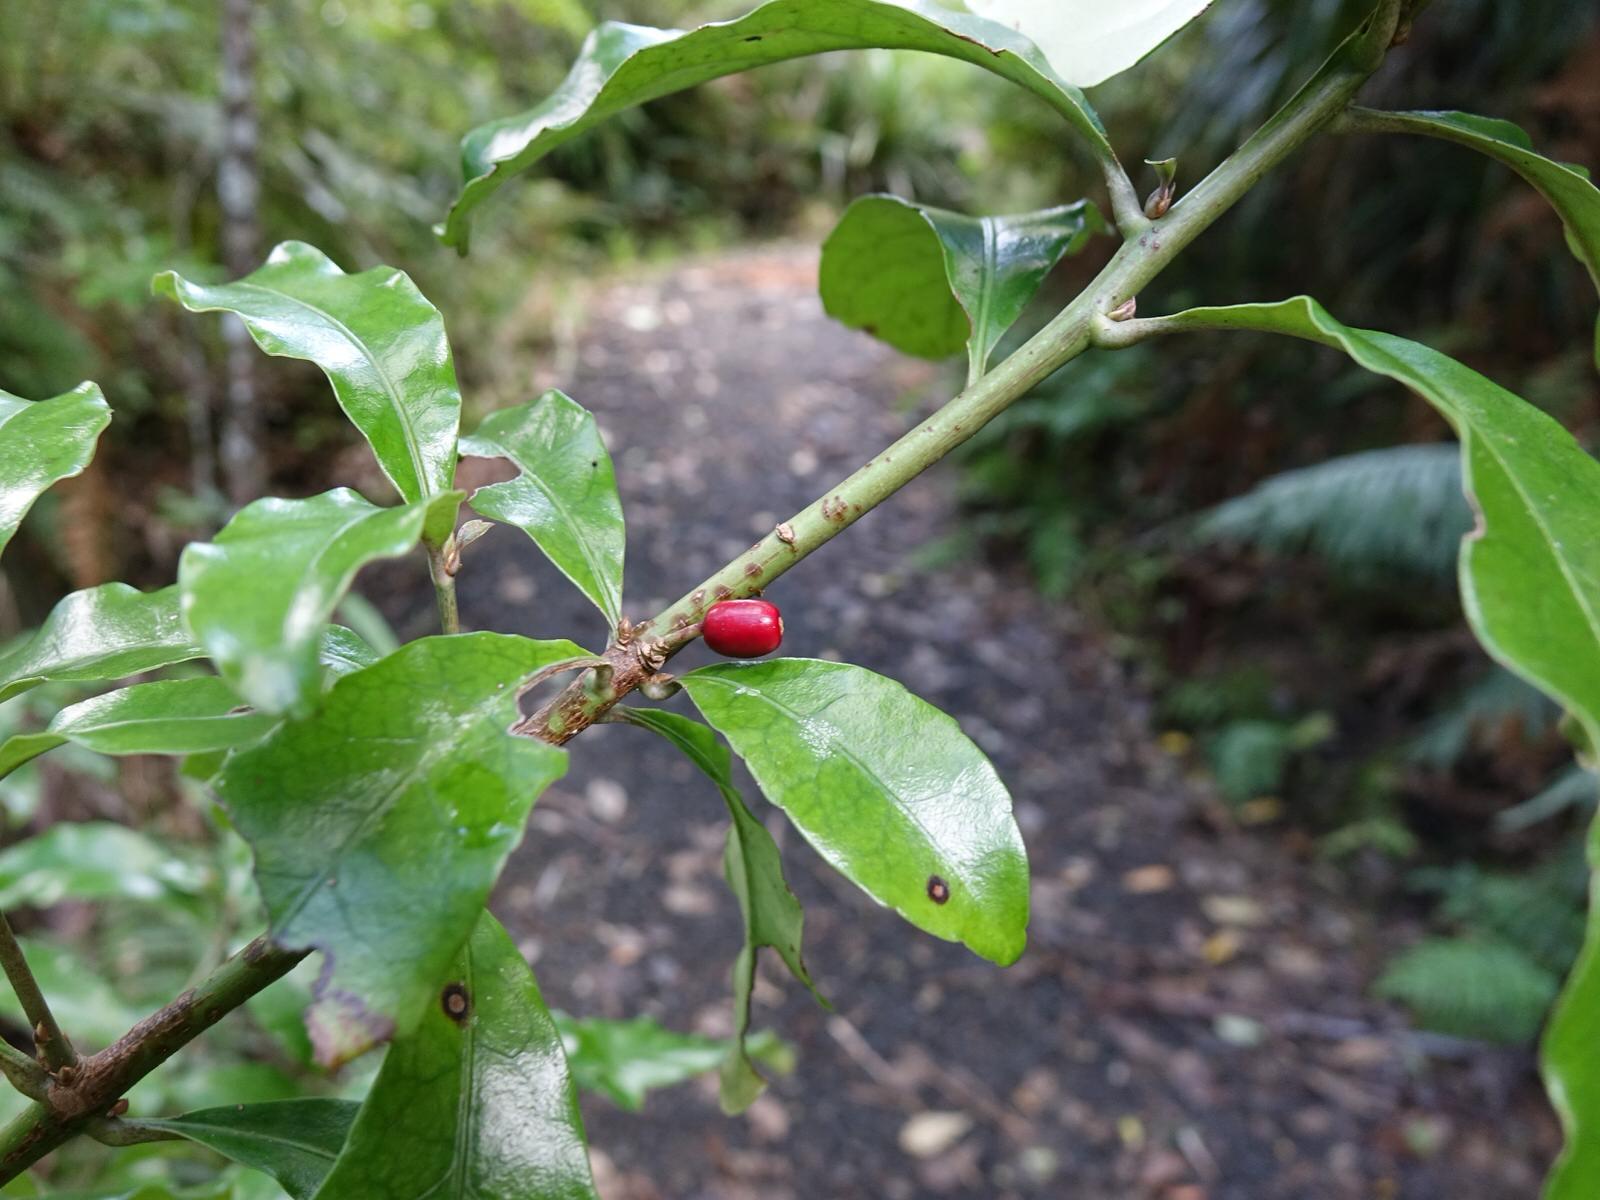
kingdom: Plantae
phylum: Tracheophyta
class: Magnoliopsida
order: Asterales
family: Alseuosmiaceae
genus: Alseuosmia
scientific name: Alseuosmia macrophylla
